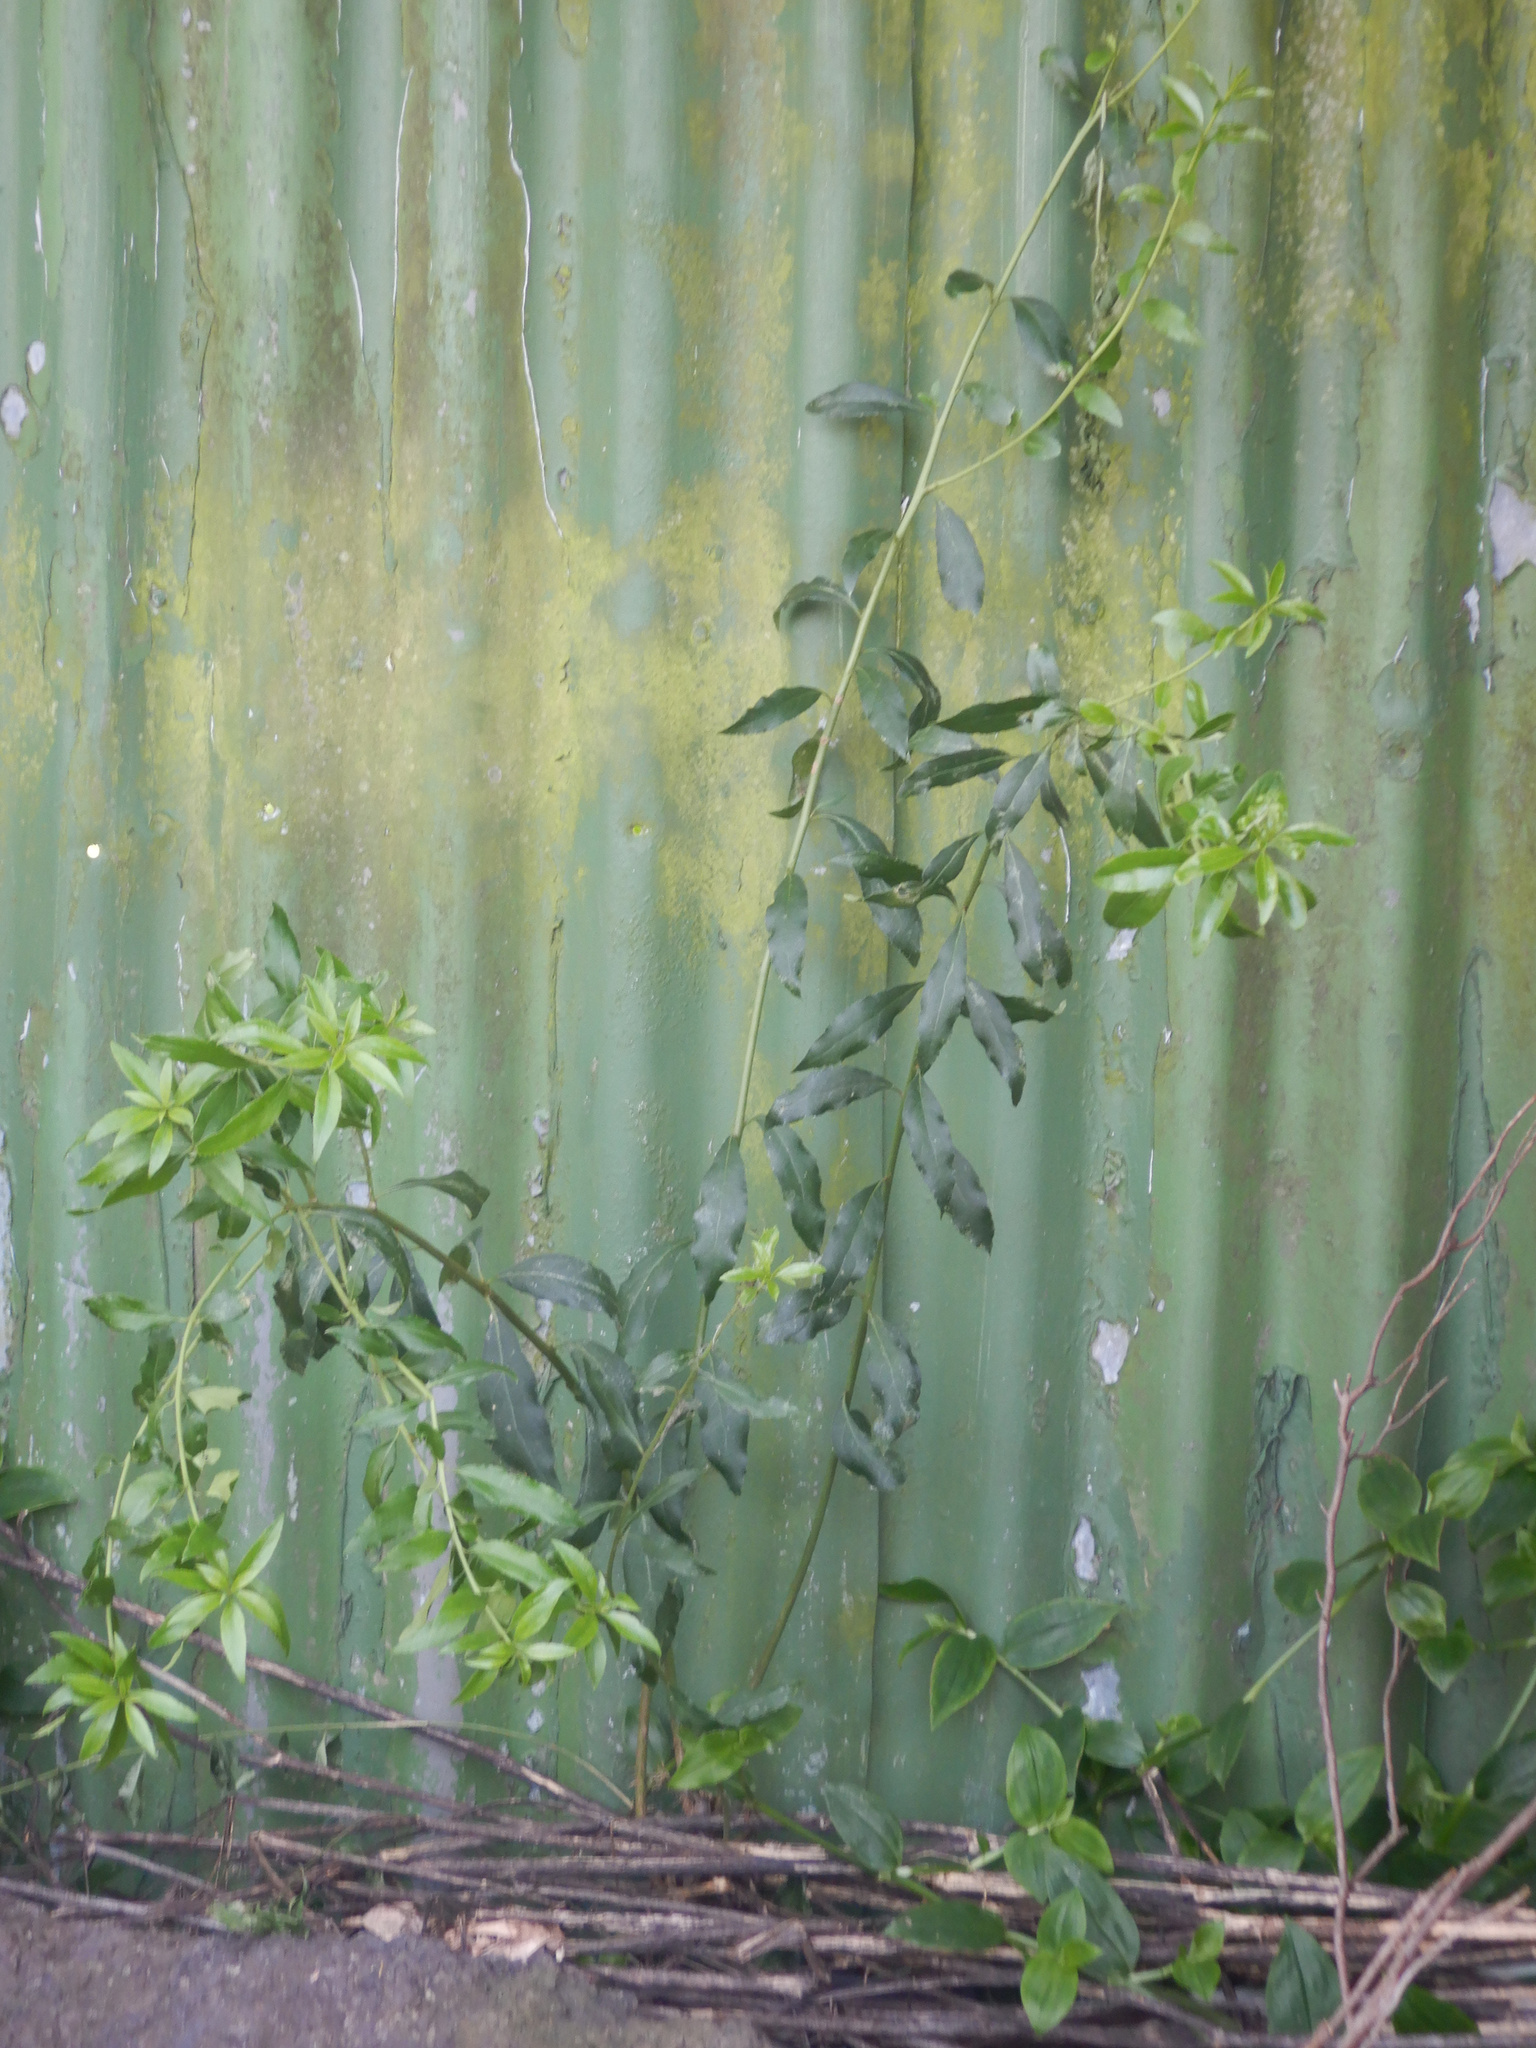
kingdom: Plantae
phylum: Tracheophyta
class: Magnoliopsida
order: Celastrales
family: Celastraceae
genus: Maytenus
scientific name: Maytenus boaria
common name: Mayten
